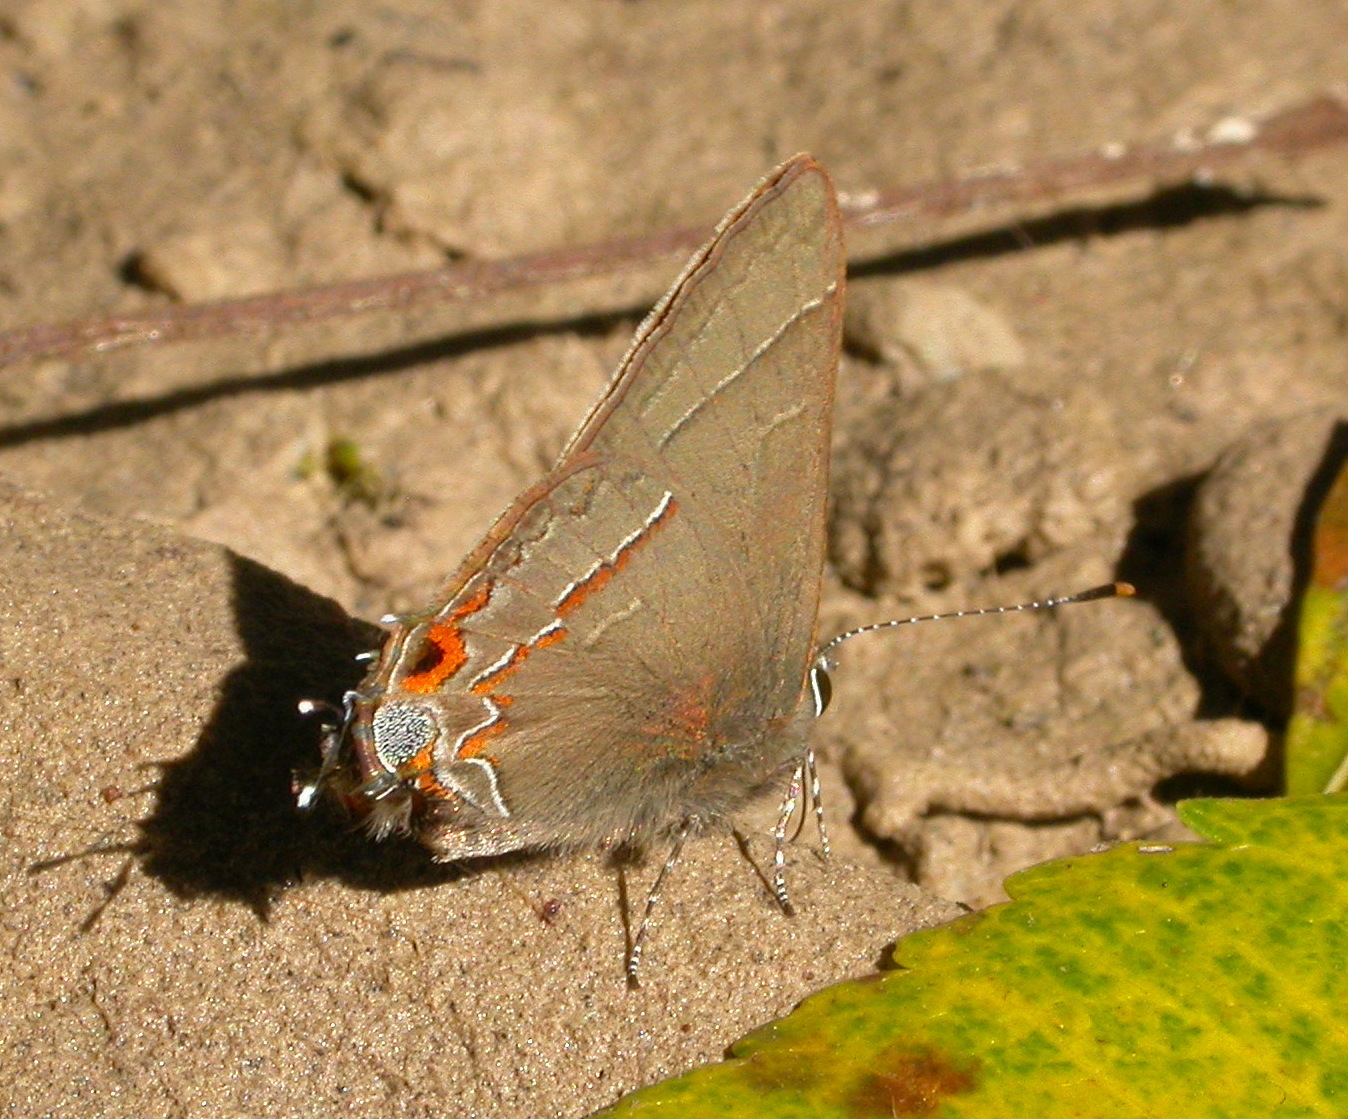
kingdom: Animalia
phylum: Arthropoda
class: Insecta
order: Lepidoptera
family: Lycaenidae
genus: Electrostrymon
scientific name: Electrostrymon
